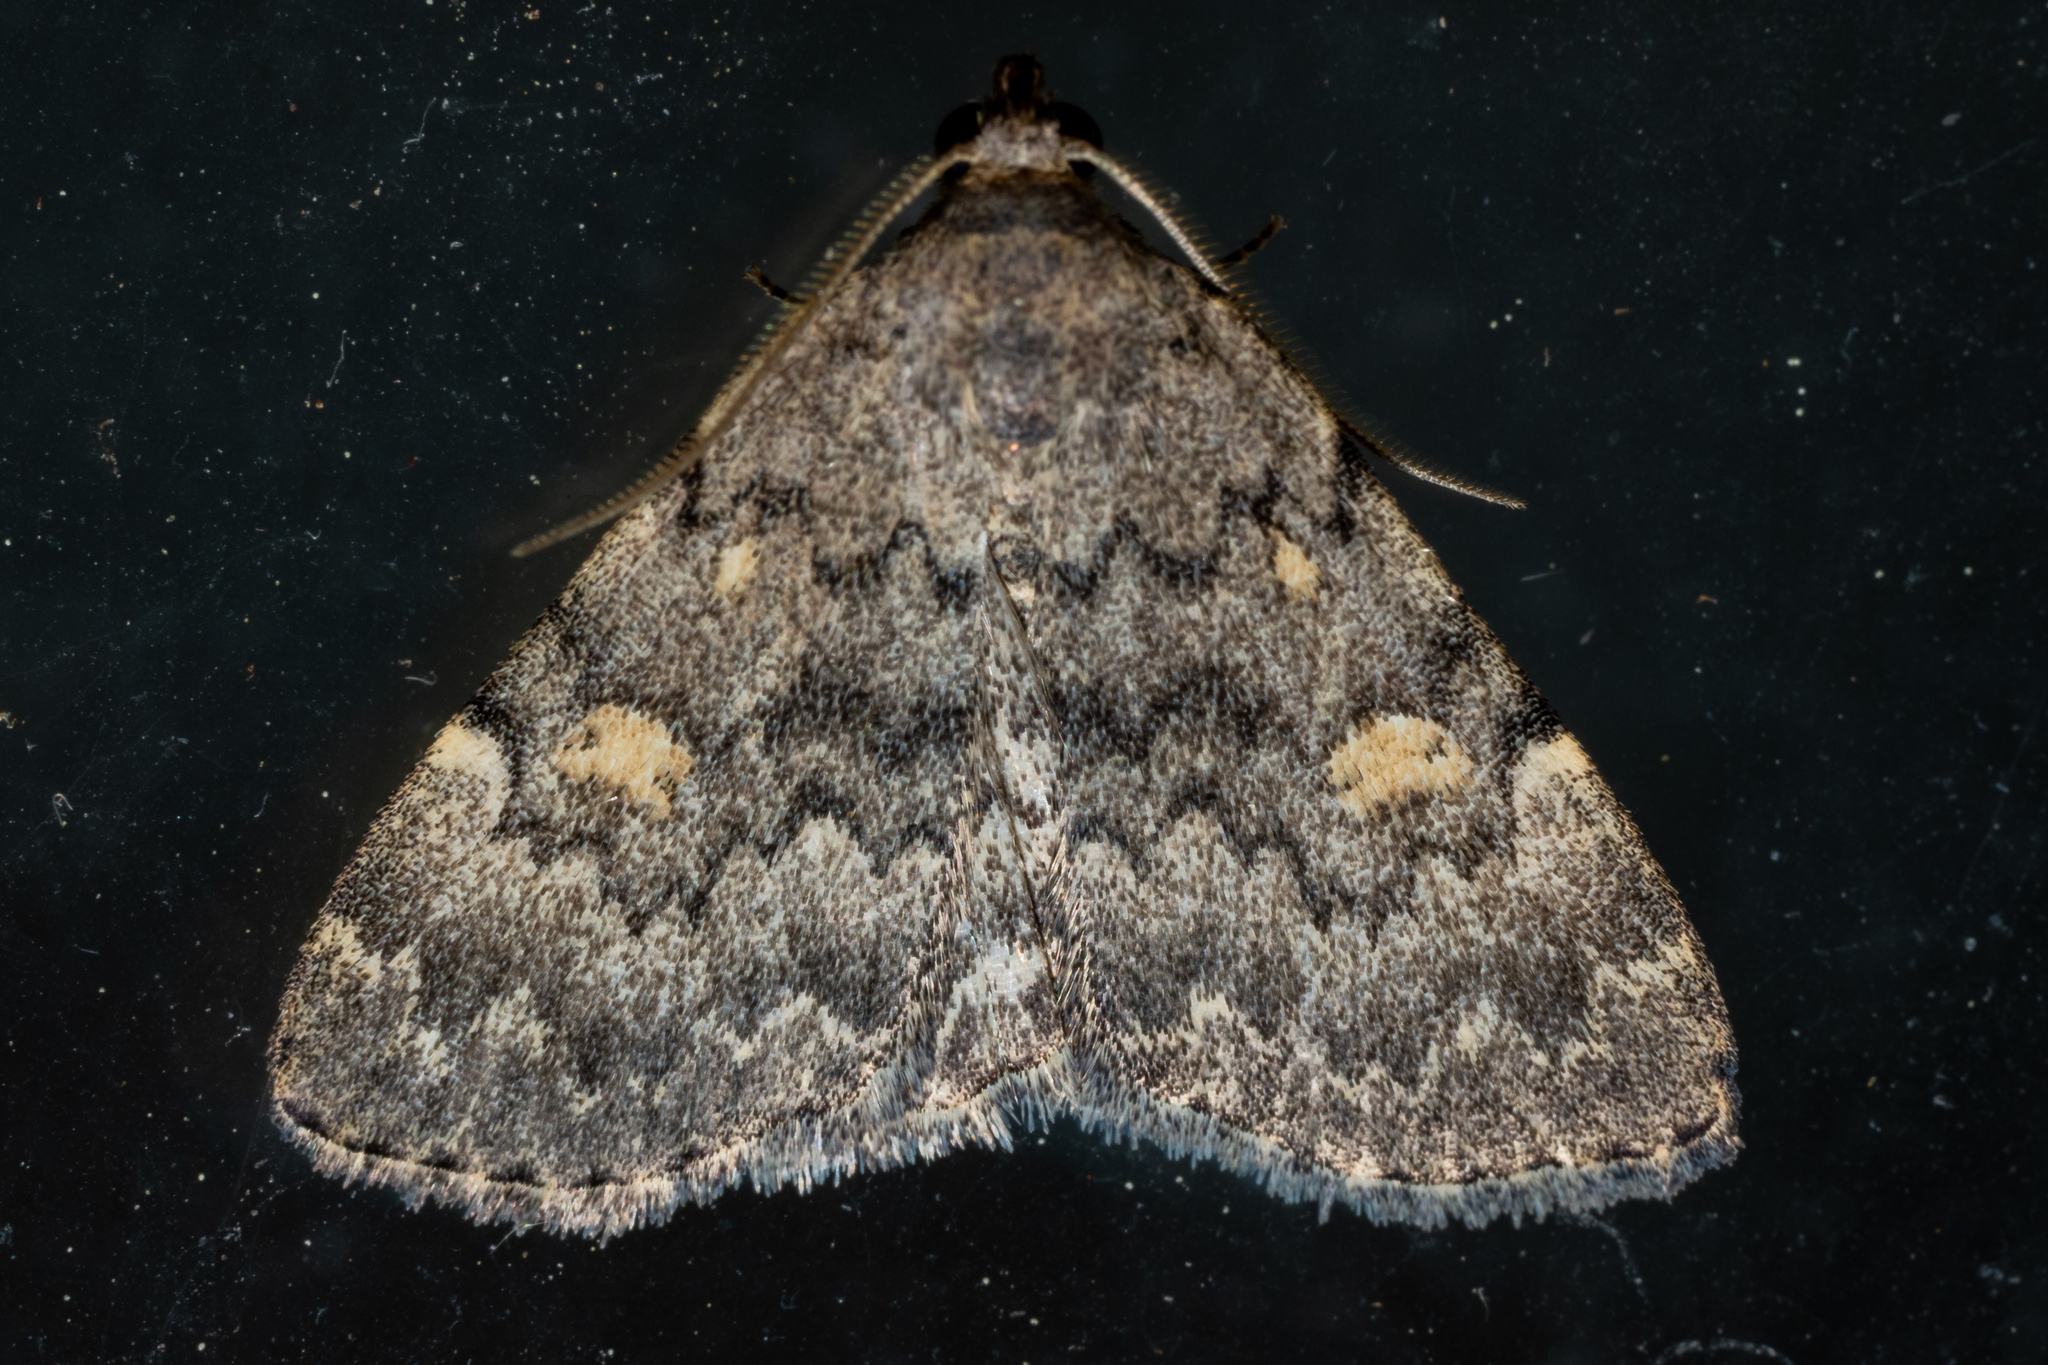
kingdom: Animalia
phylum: Arthropoda
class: Insecta
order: Lepidoptera
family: Erebidae
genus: Idia
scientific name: Idia aemula
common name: Common idia moth
